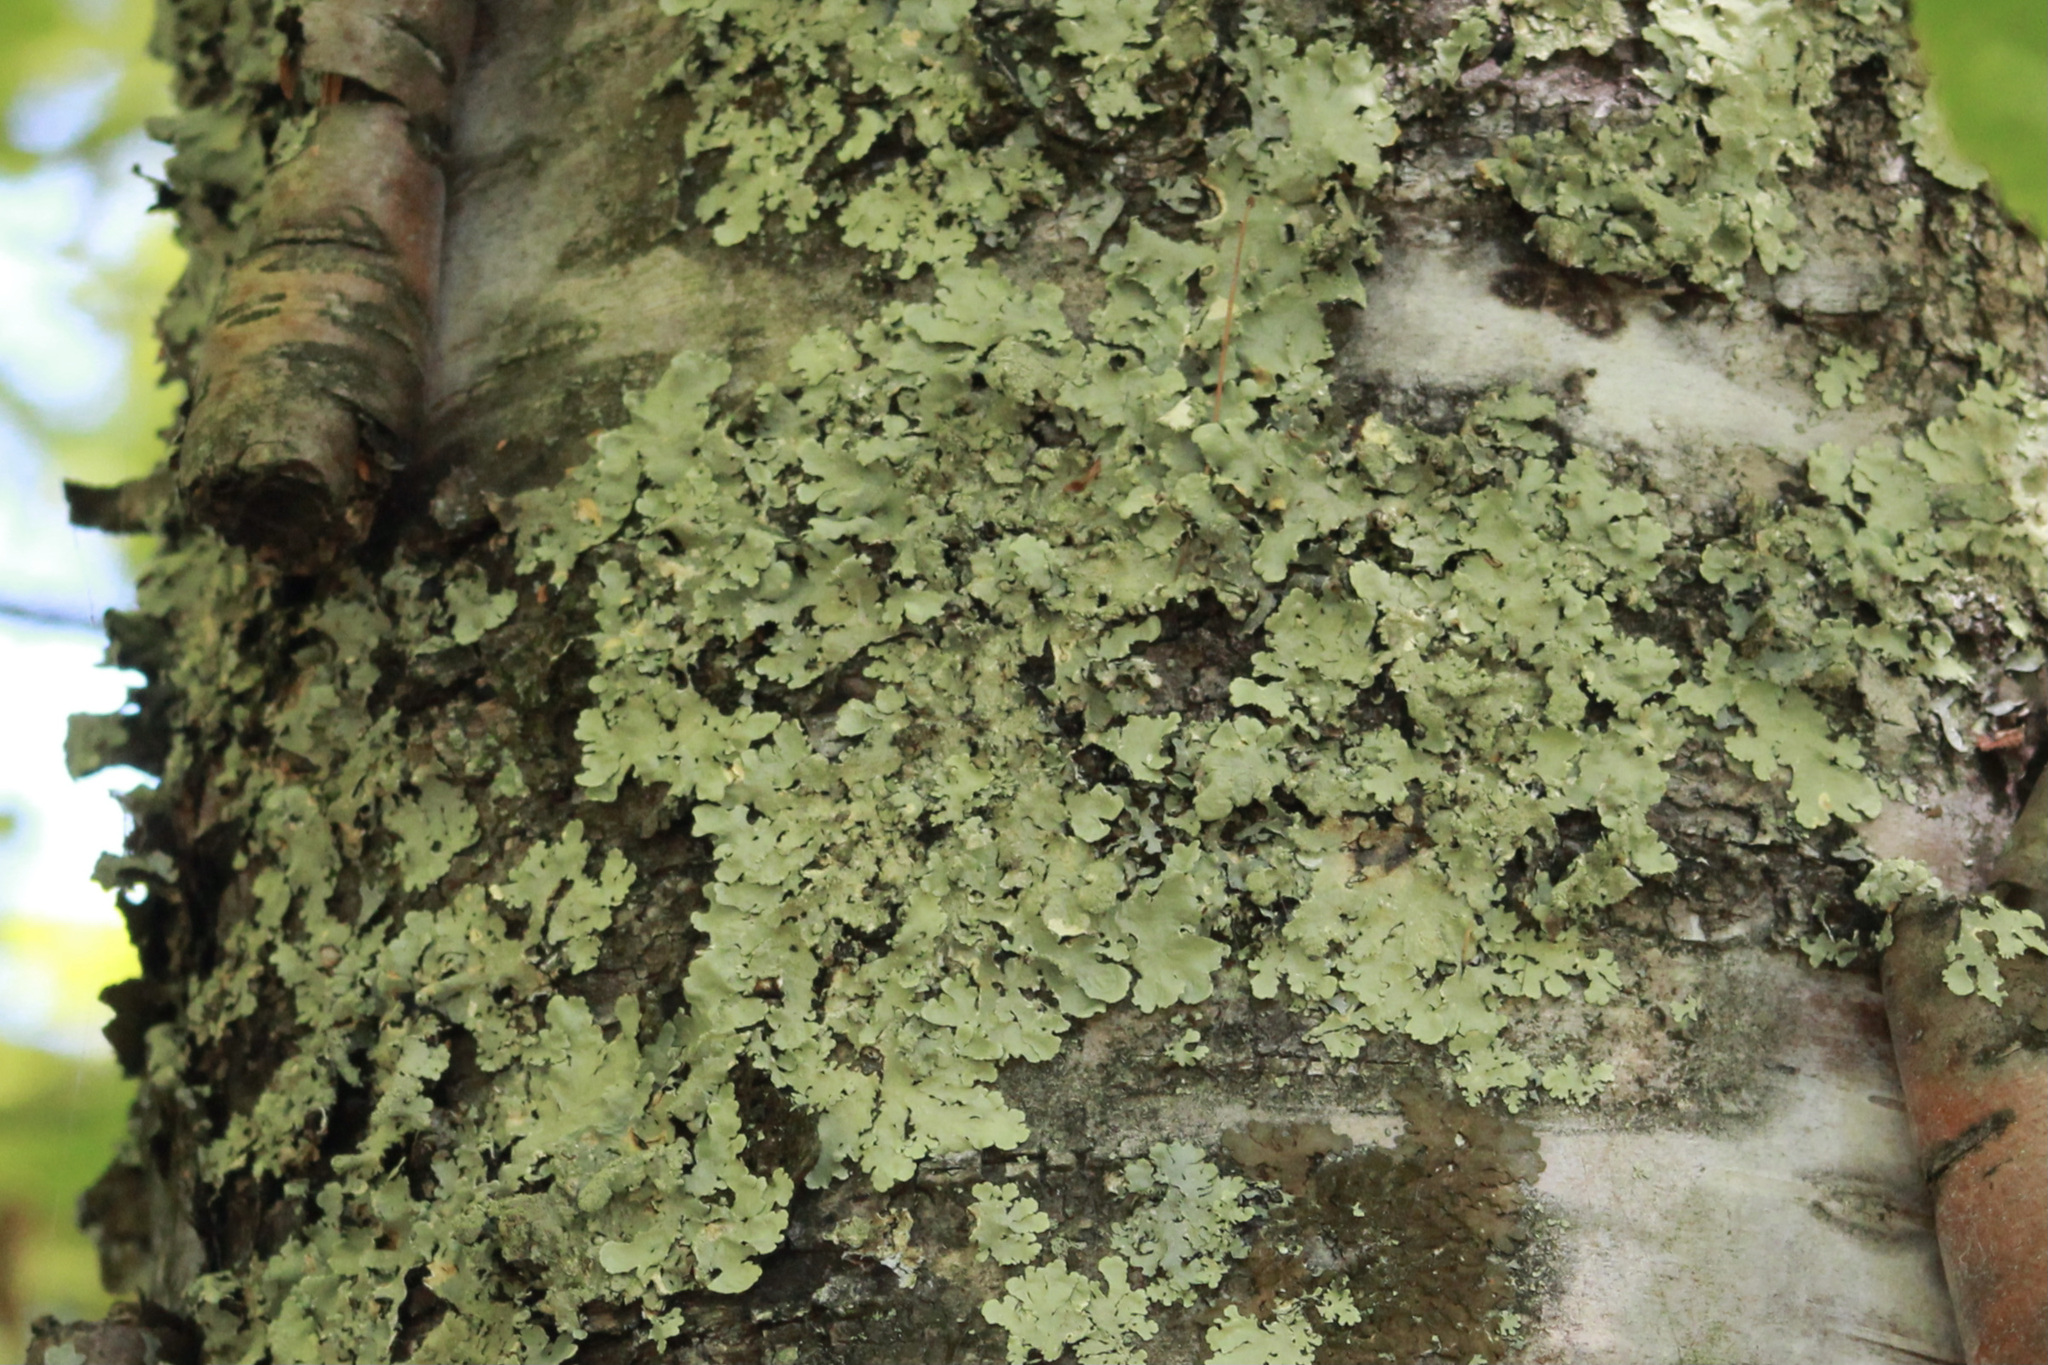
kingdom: Fungi
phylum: Ascomycota
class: Lecanoromycetes
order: Lecanorales
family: Parmeliaceae
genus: Flavoparmelia
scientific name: Flavoparmelia caperata
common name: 40-mile per hour lichen
